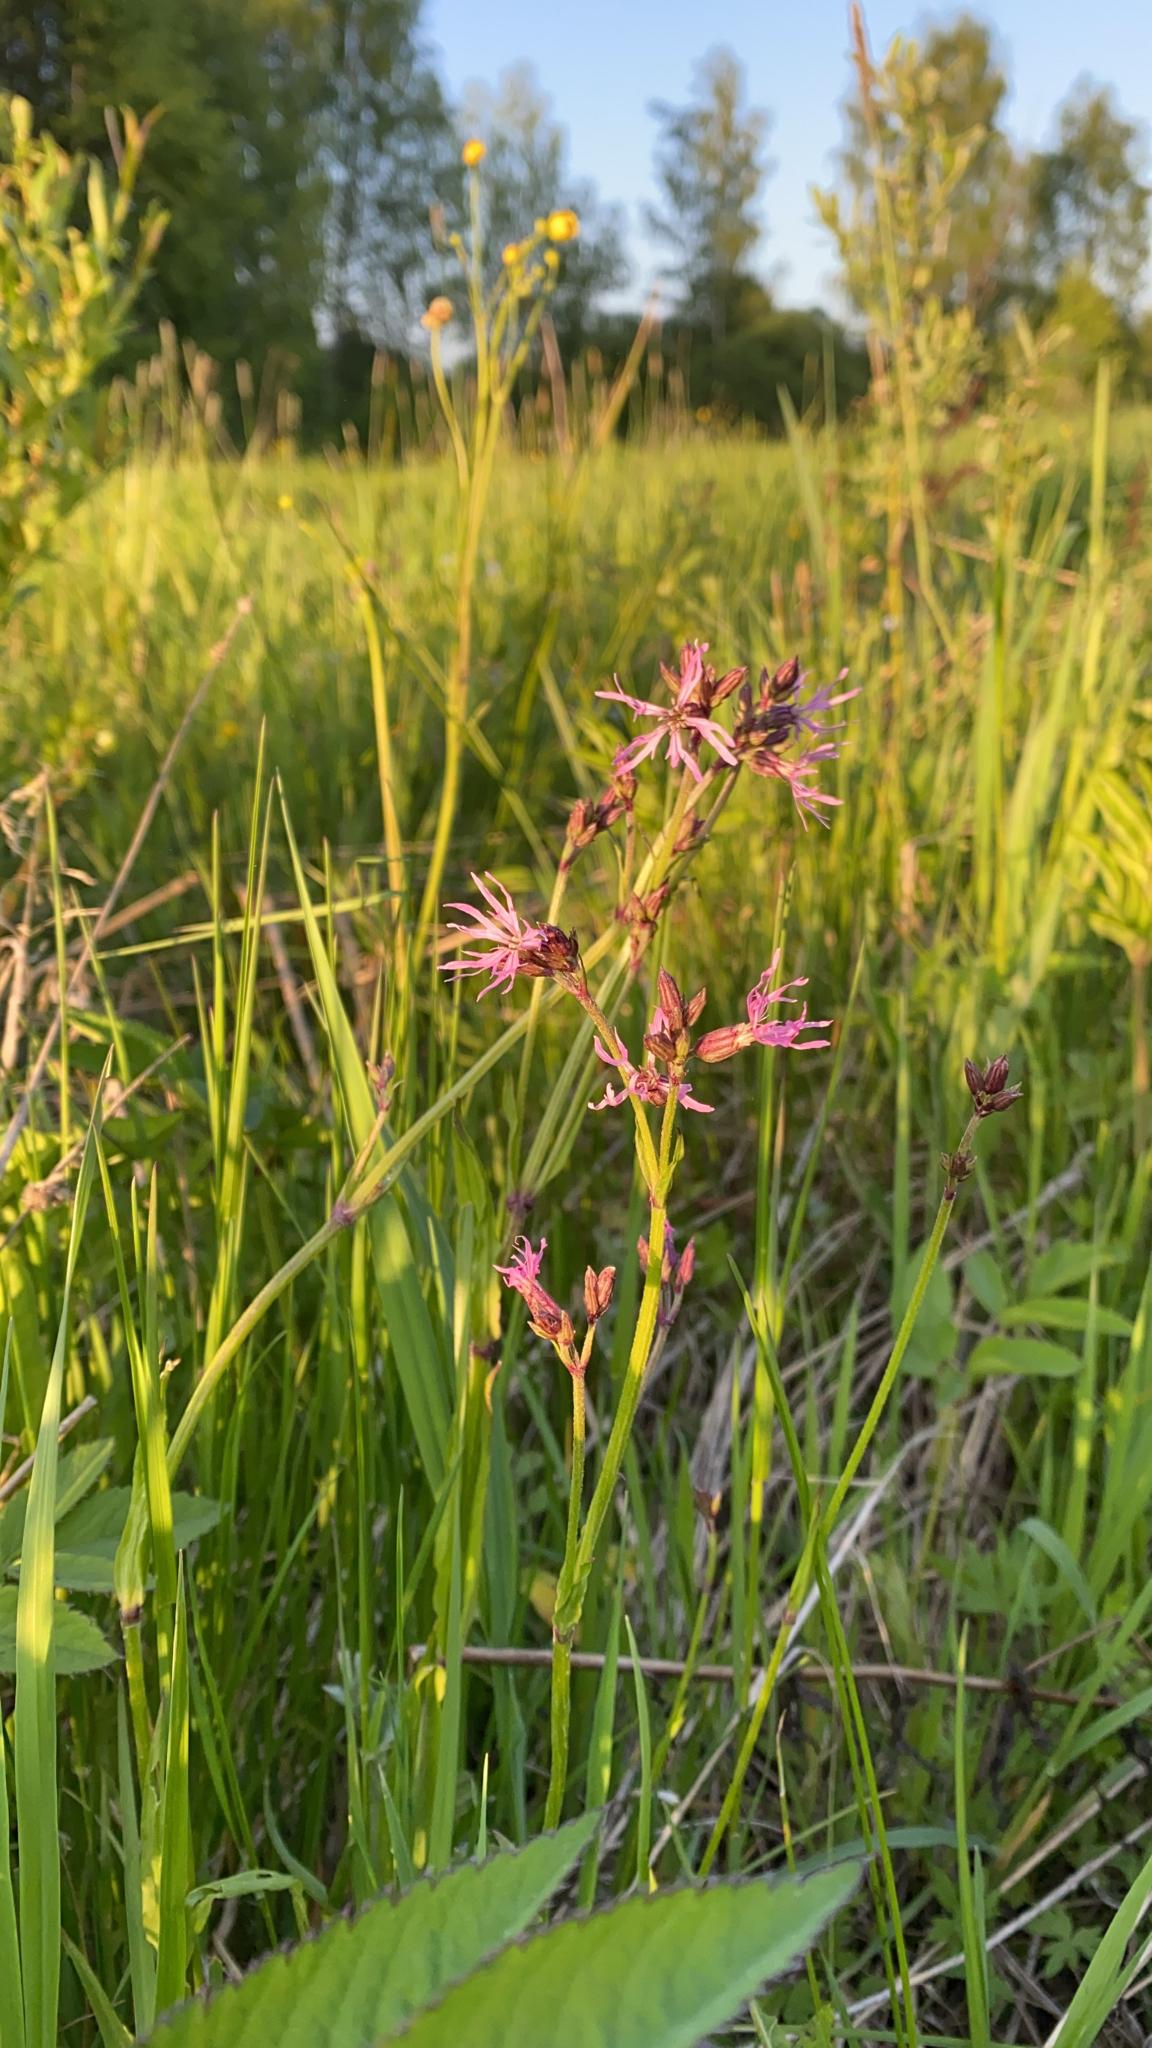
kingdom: Plantae
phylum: Tracheophyta
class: Magnoliopsida
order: Caryophyllales
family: Caryophyllaceae
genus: Silene
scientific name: Silene flos-cuculi
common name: Ragged-robin
